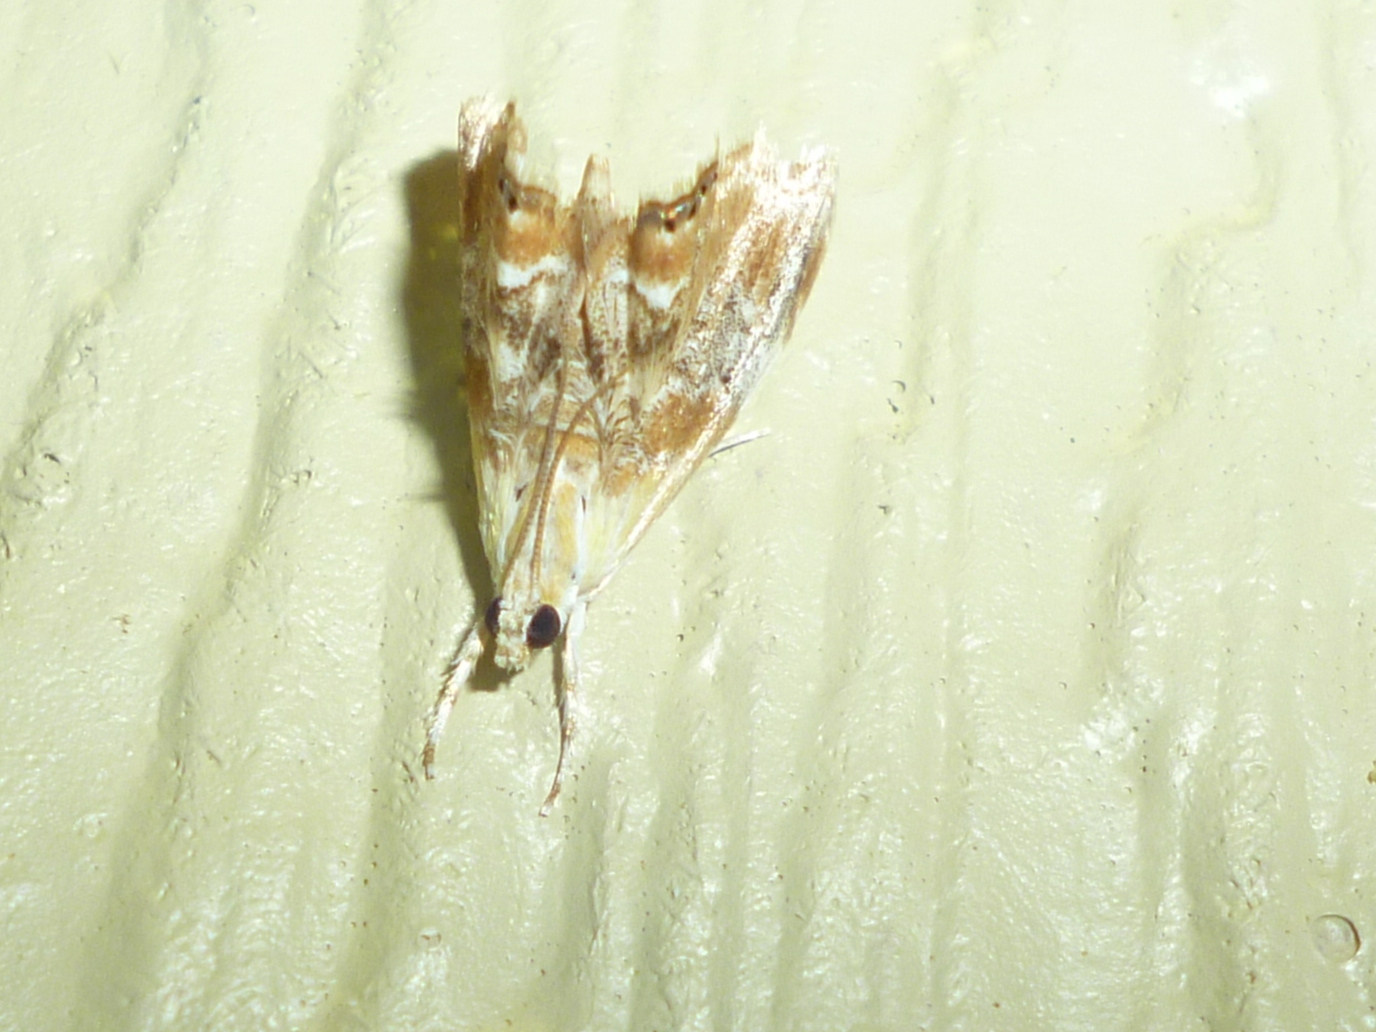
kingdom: Animalia
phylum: Arthropoda
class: Insecta
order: Lepidoptera
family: Crambidae
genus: Dicymolomia
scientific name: Dicymolomia julianalis
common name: Julia's dicymolomia moth
